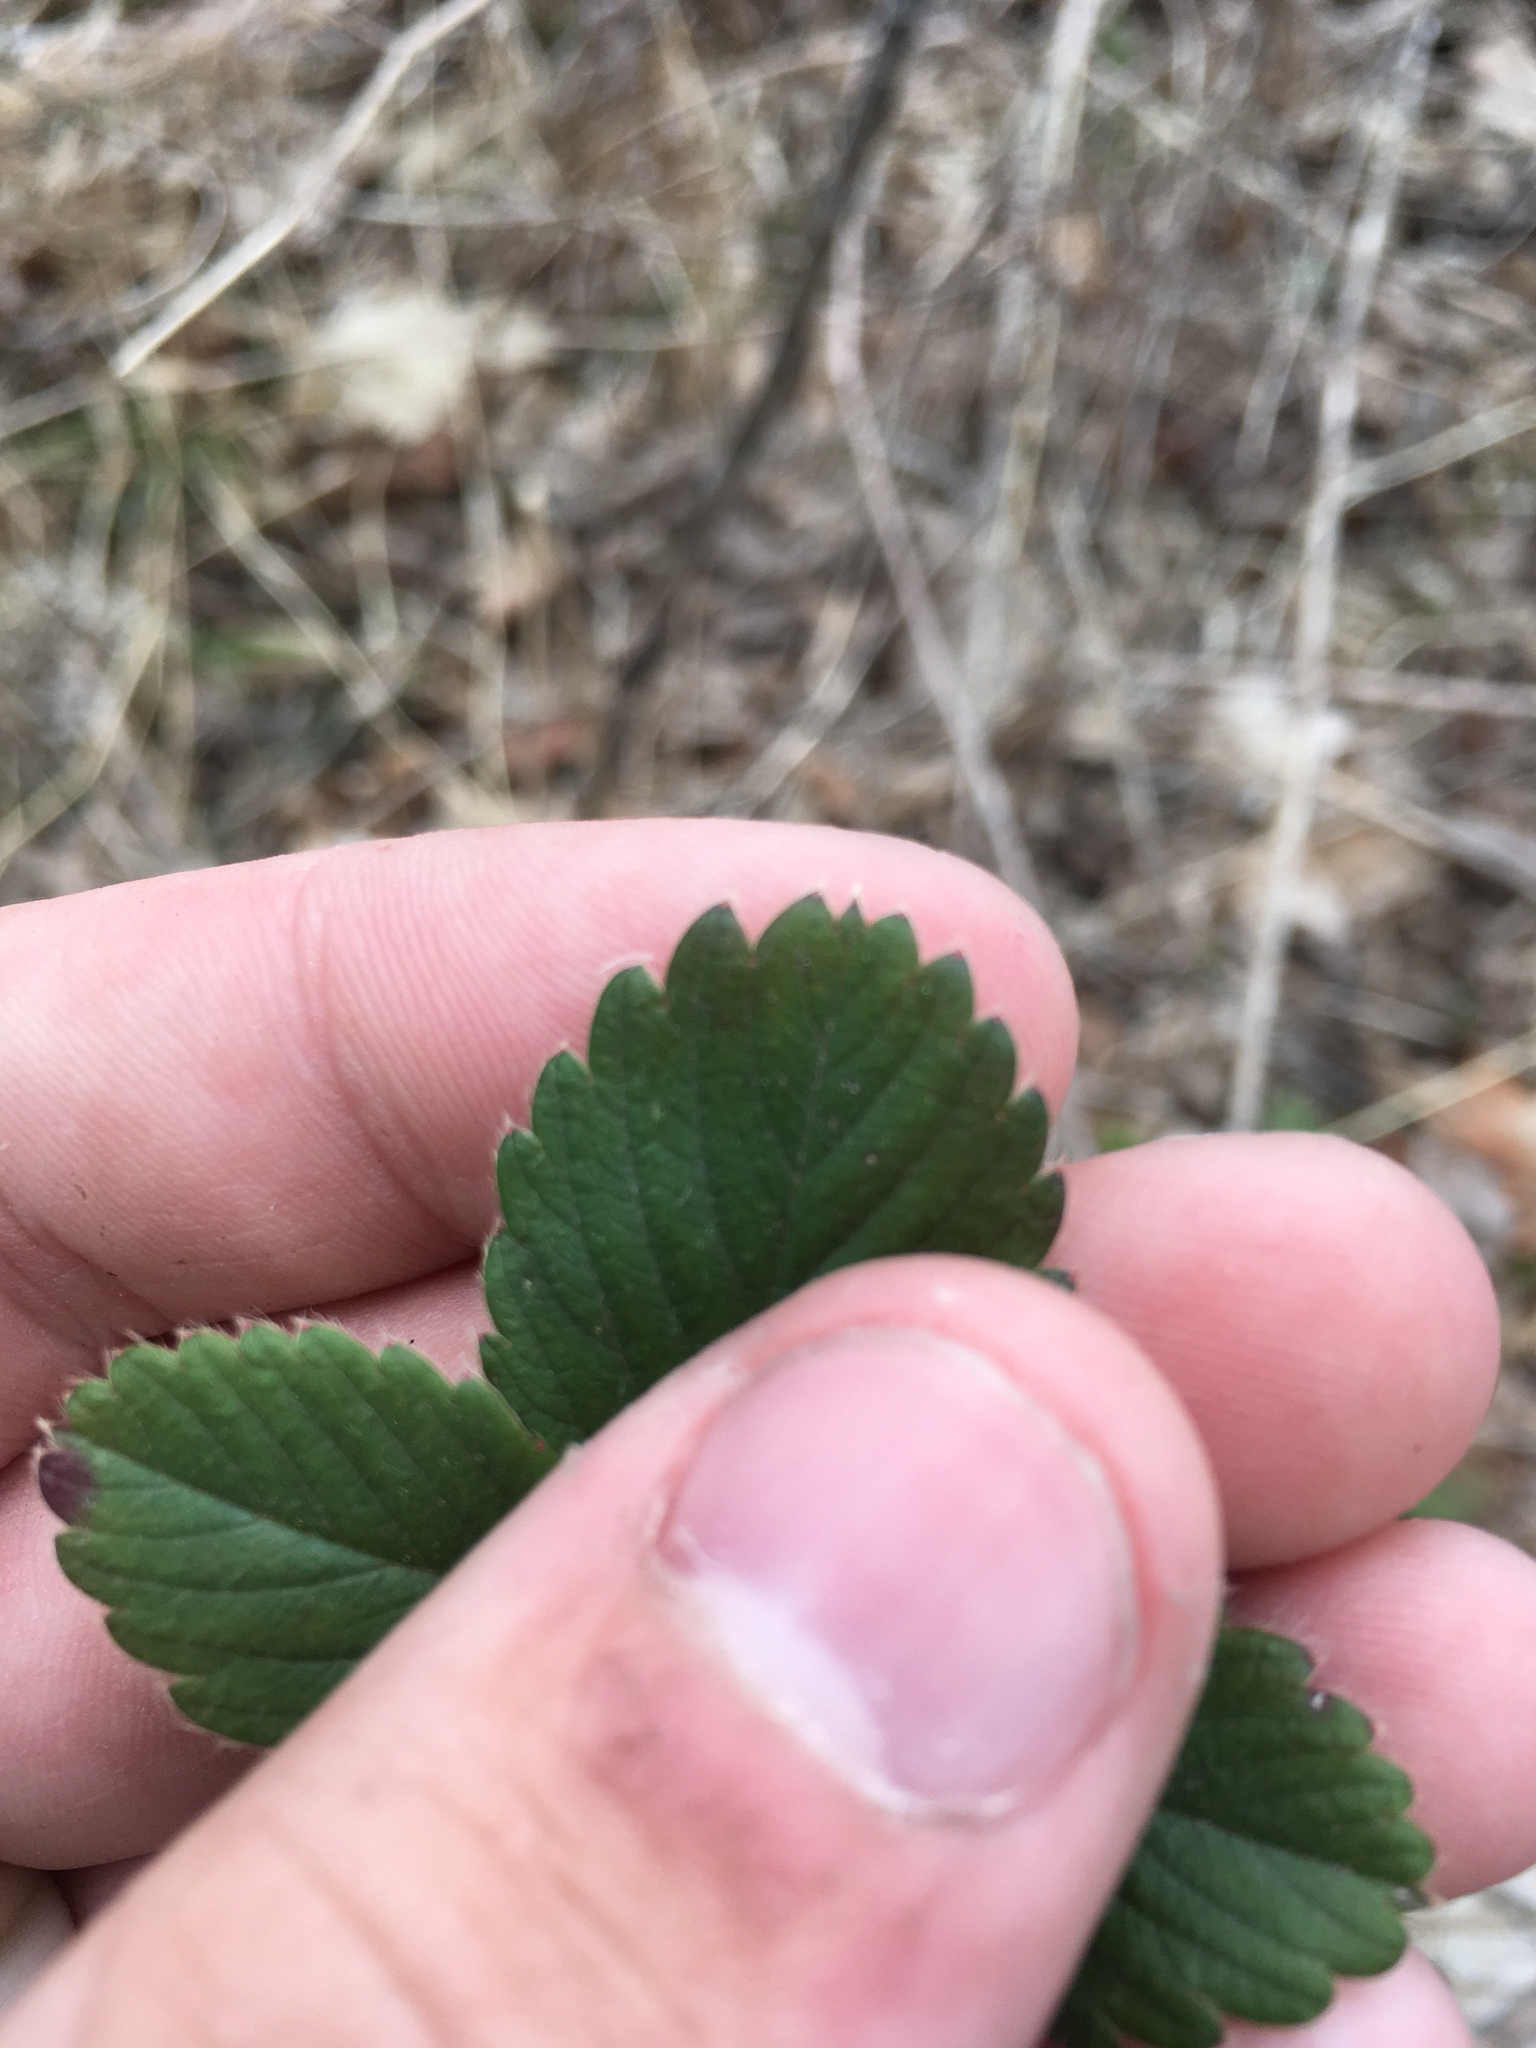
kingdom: Plantae
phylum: Tracheophyta
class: Magnoliopsida
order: Rosales
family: Rosaceae
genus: Fragaria
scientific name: Fragaria virginiana
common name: Thickleaved wild strawberry
